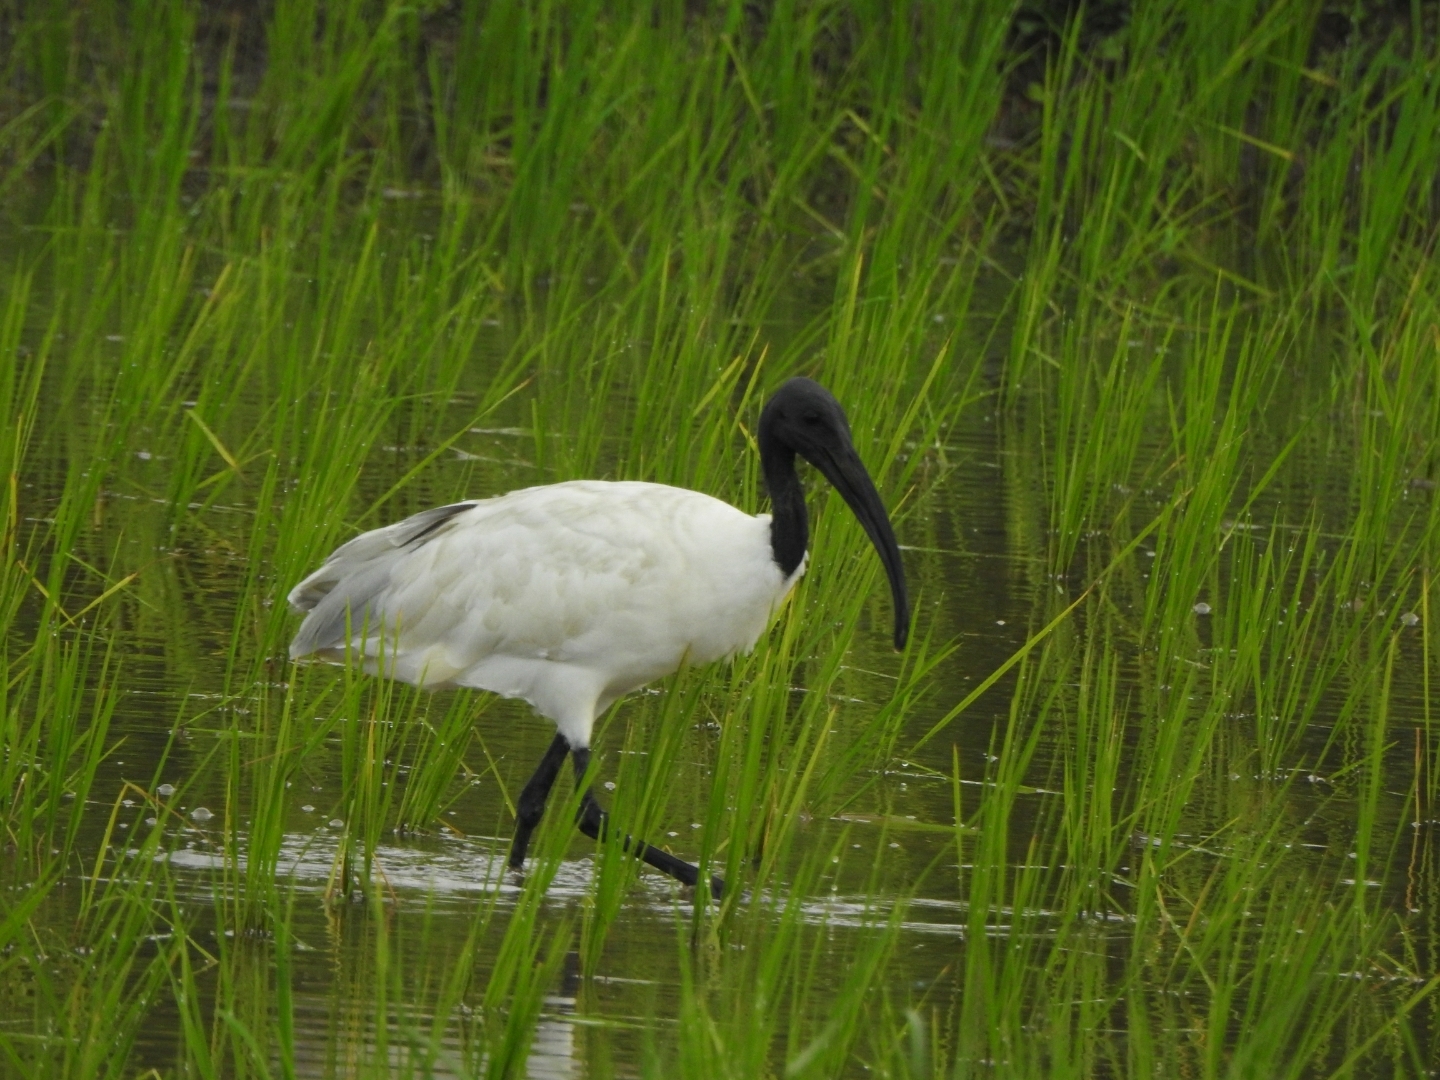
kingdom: Animalia
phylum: Chordata
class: Aves
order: Pelecaniformes
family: Threskiornithidae
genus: Threskiornis
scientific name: Threskiornis melanocephalus
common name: Black-headed ibis
